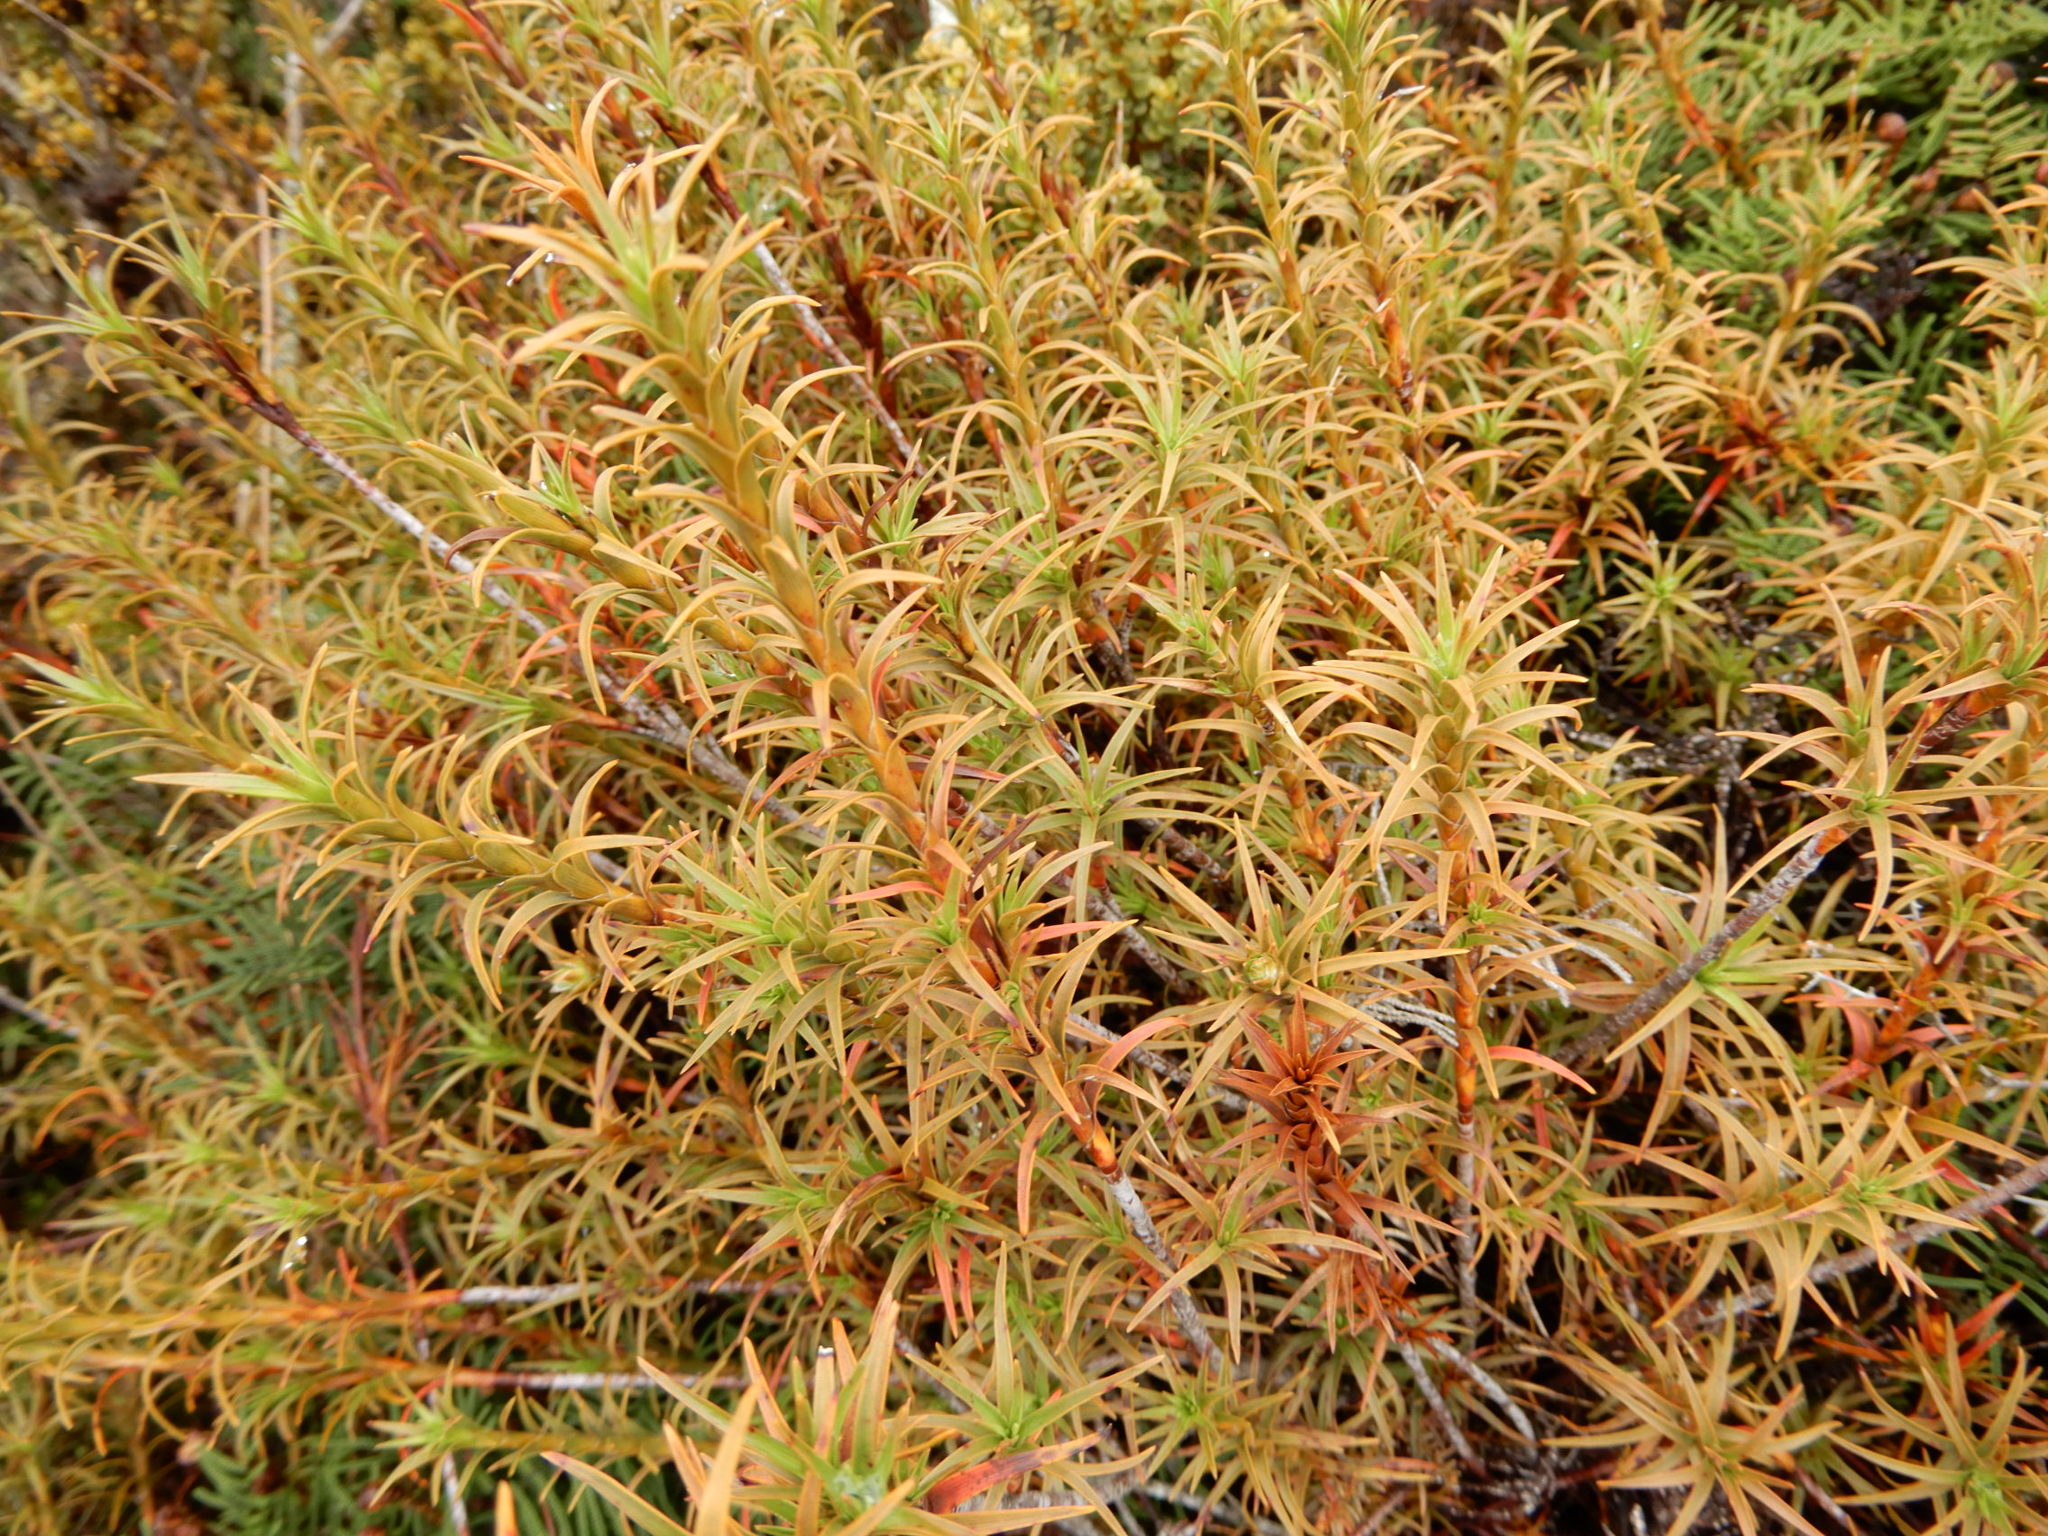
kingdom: Plantae
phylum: Tracheophyta
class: Magnoliopsida
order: Ericales
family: Ericaceae
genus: Dracophyllum
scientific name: Dracophyllum recurvum
